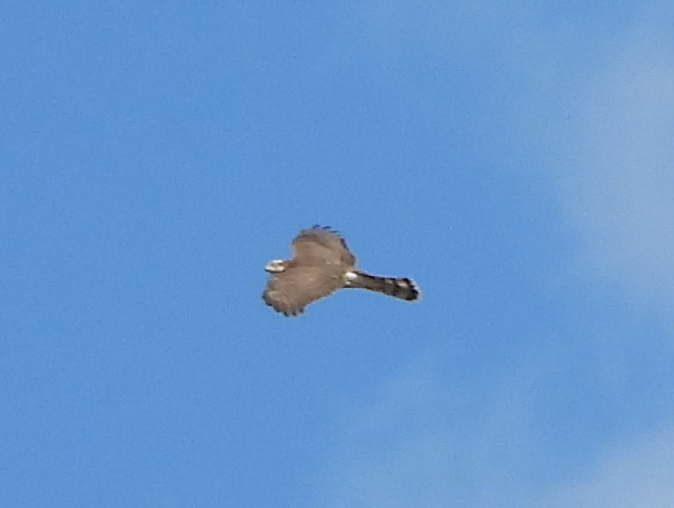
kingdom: Animalia
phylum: Chordata
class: Aves
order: Accipitriformes
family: Accipitridae
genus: Accipiter
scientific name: Accipiter nisus
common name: Eurasian sparrowhawk
